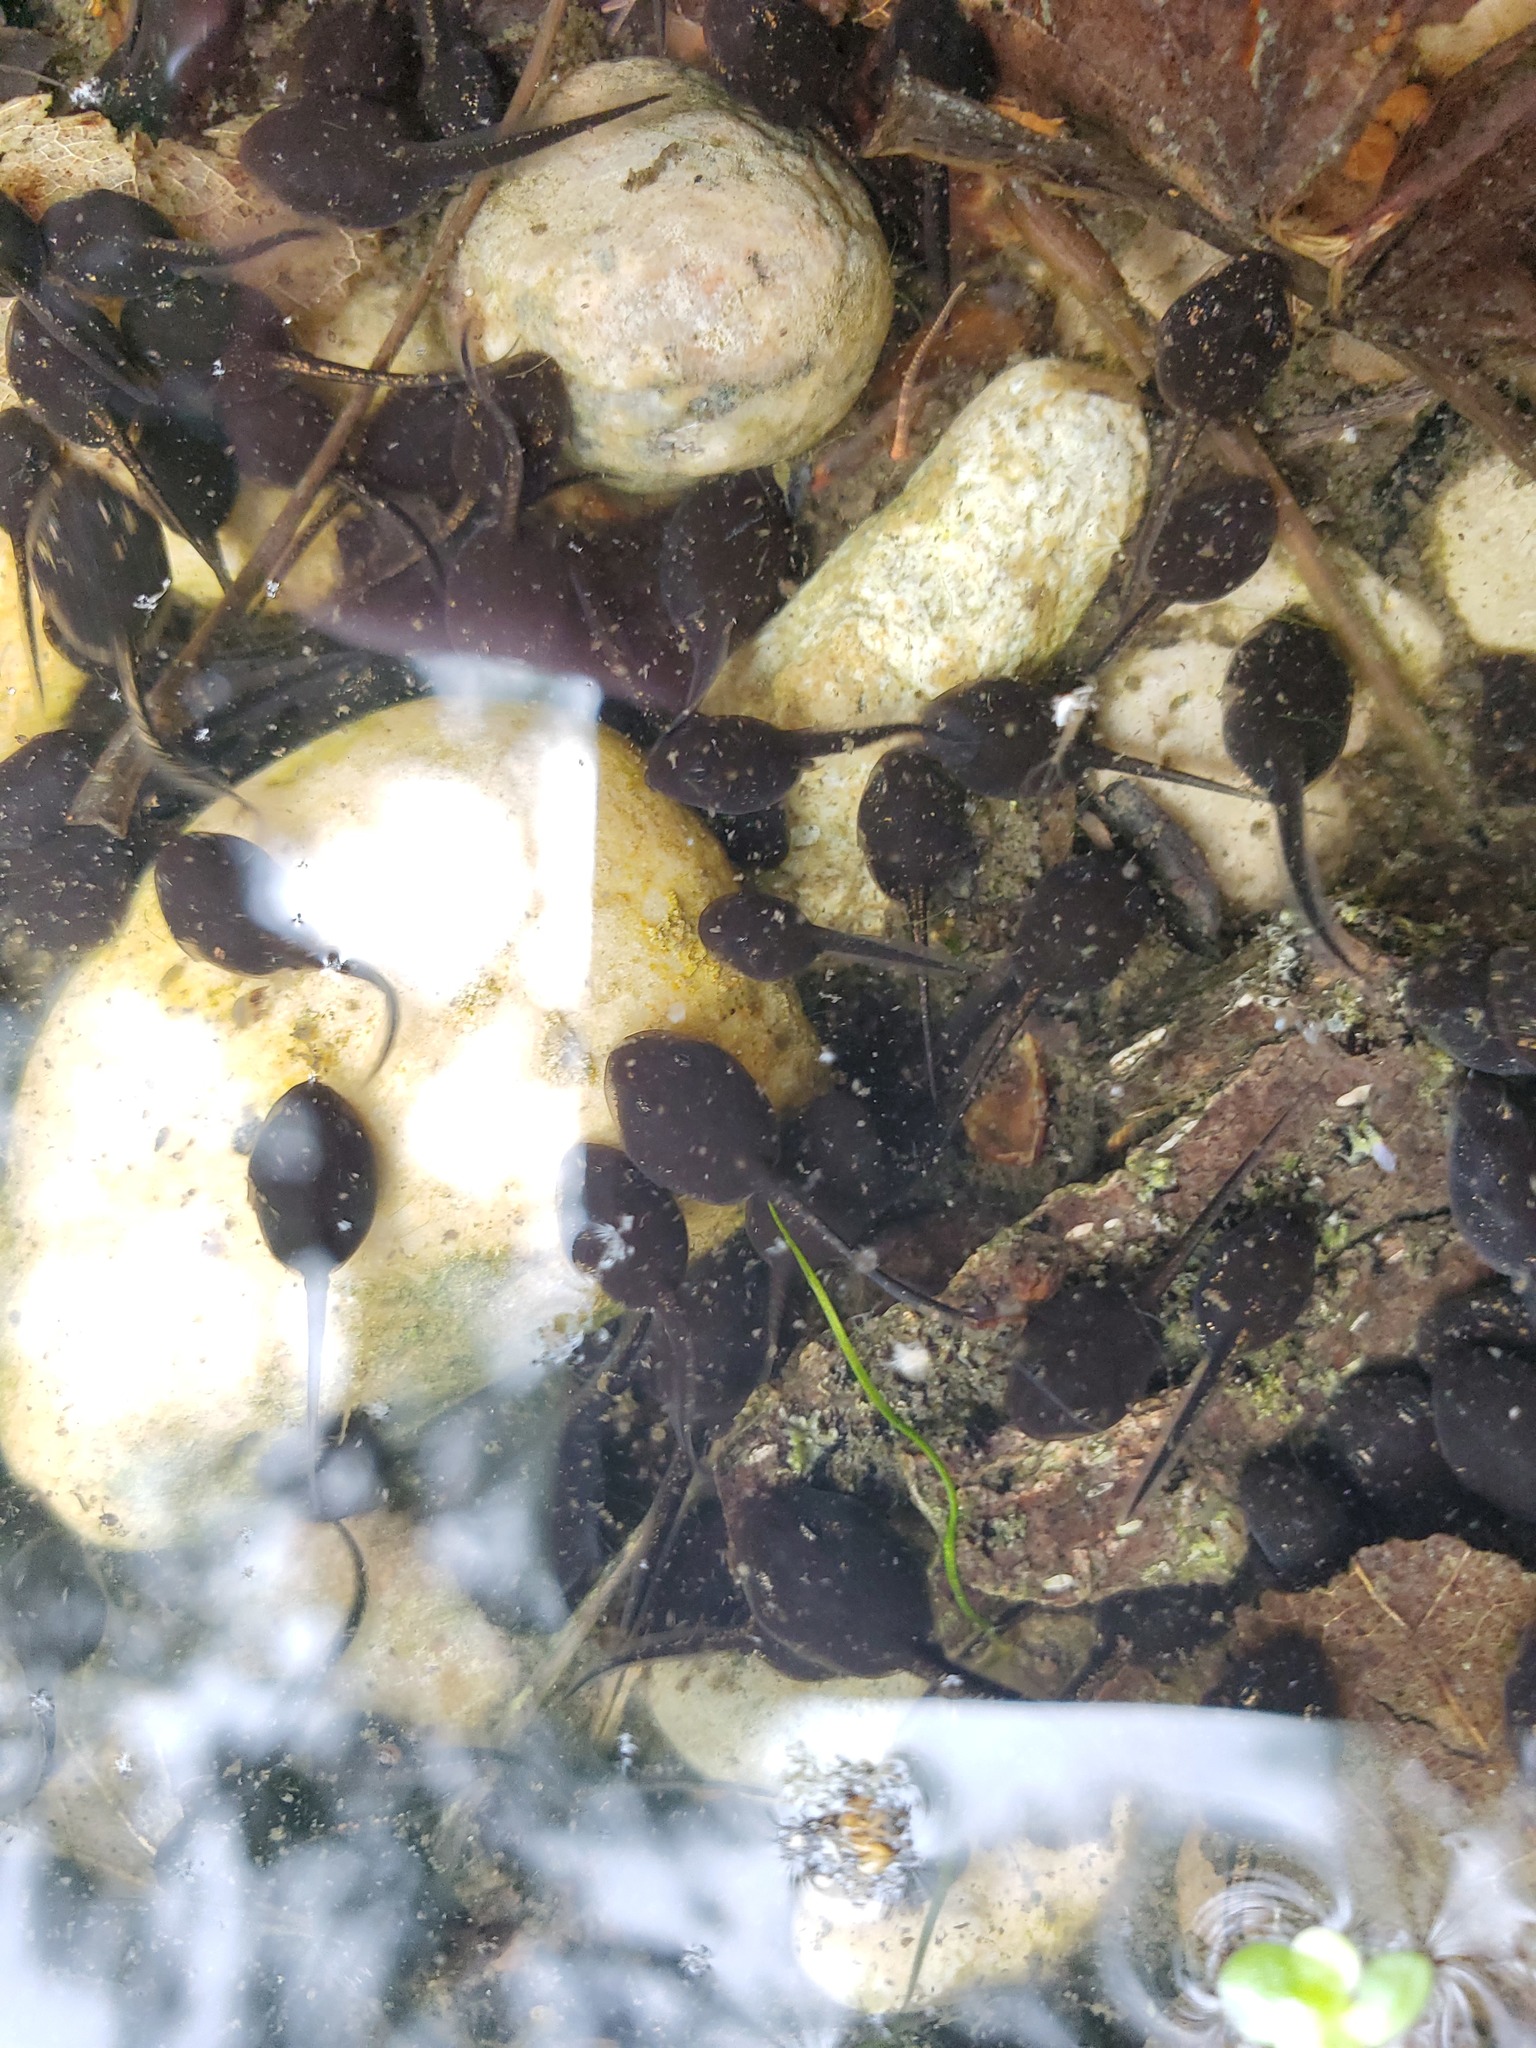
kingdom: Animalia
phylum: Chordata
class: Amphibia
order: Anura
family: Bufonidae
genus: Anaxyrus
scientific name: Anaxyrus americanus
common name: American toad
